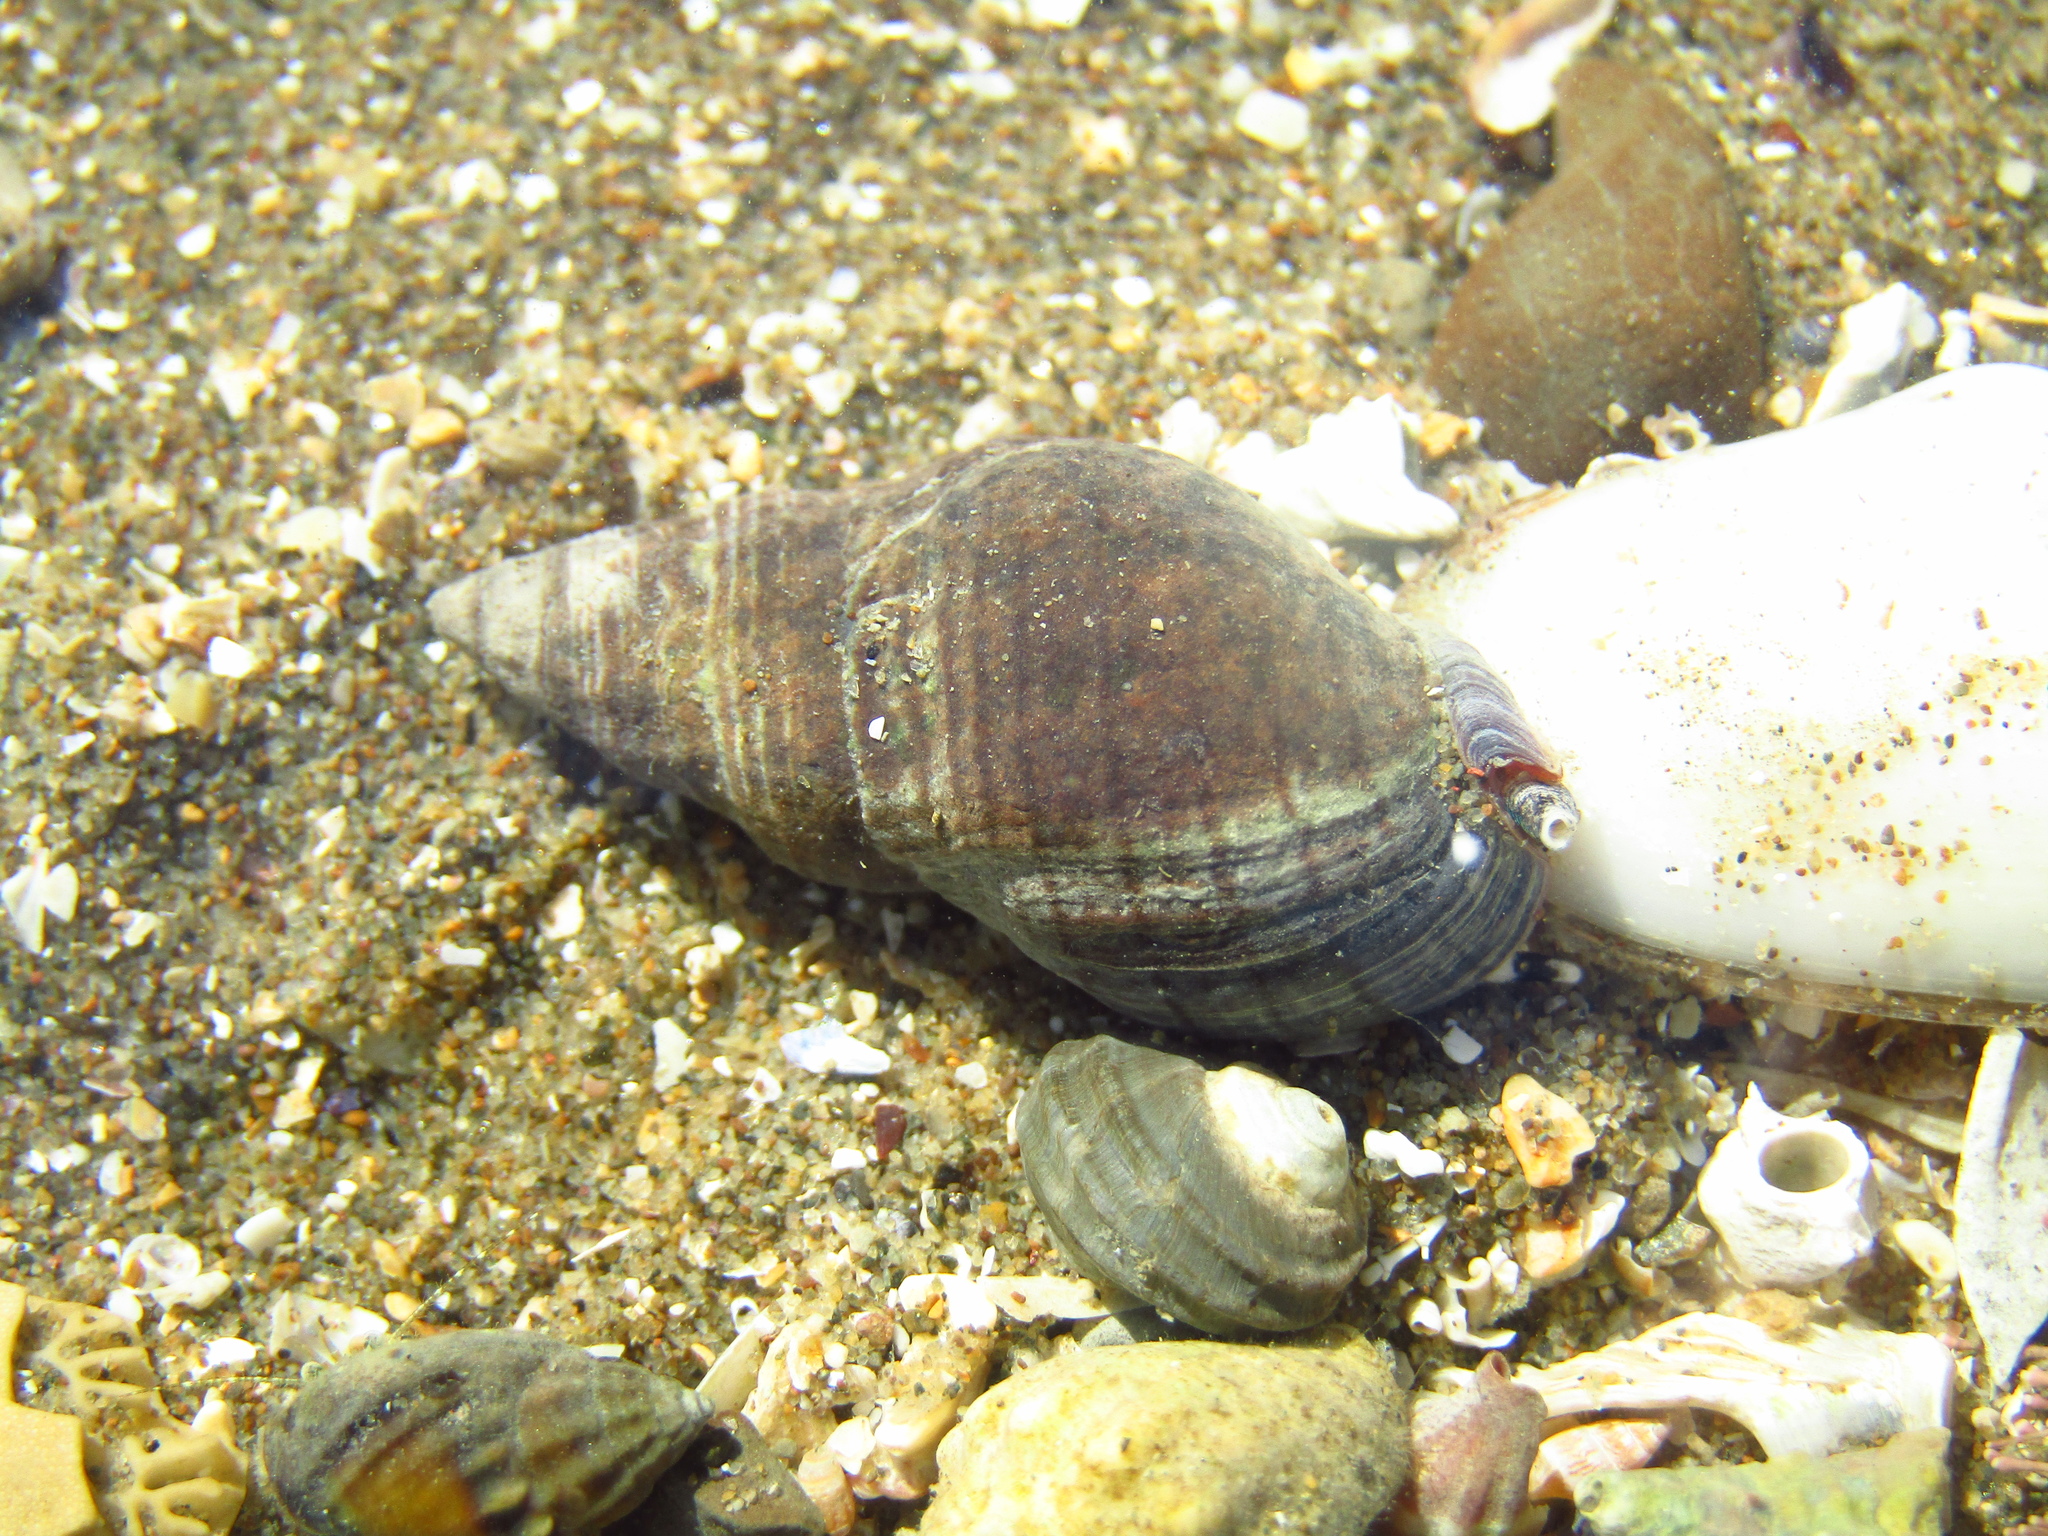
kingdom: Animalia
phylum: Mollusca
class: Gastropoda
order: Neogastropoda
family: Cominellidae
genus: Cominella
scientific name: Cominella virgata
